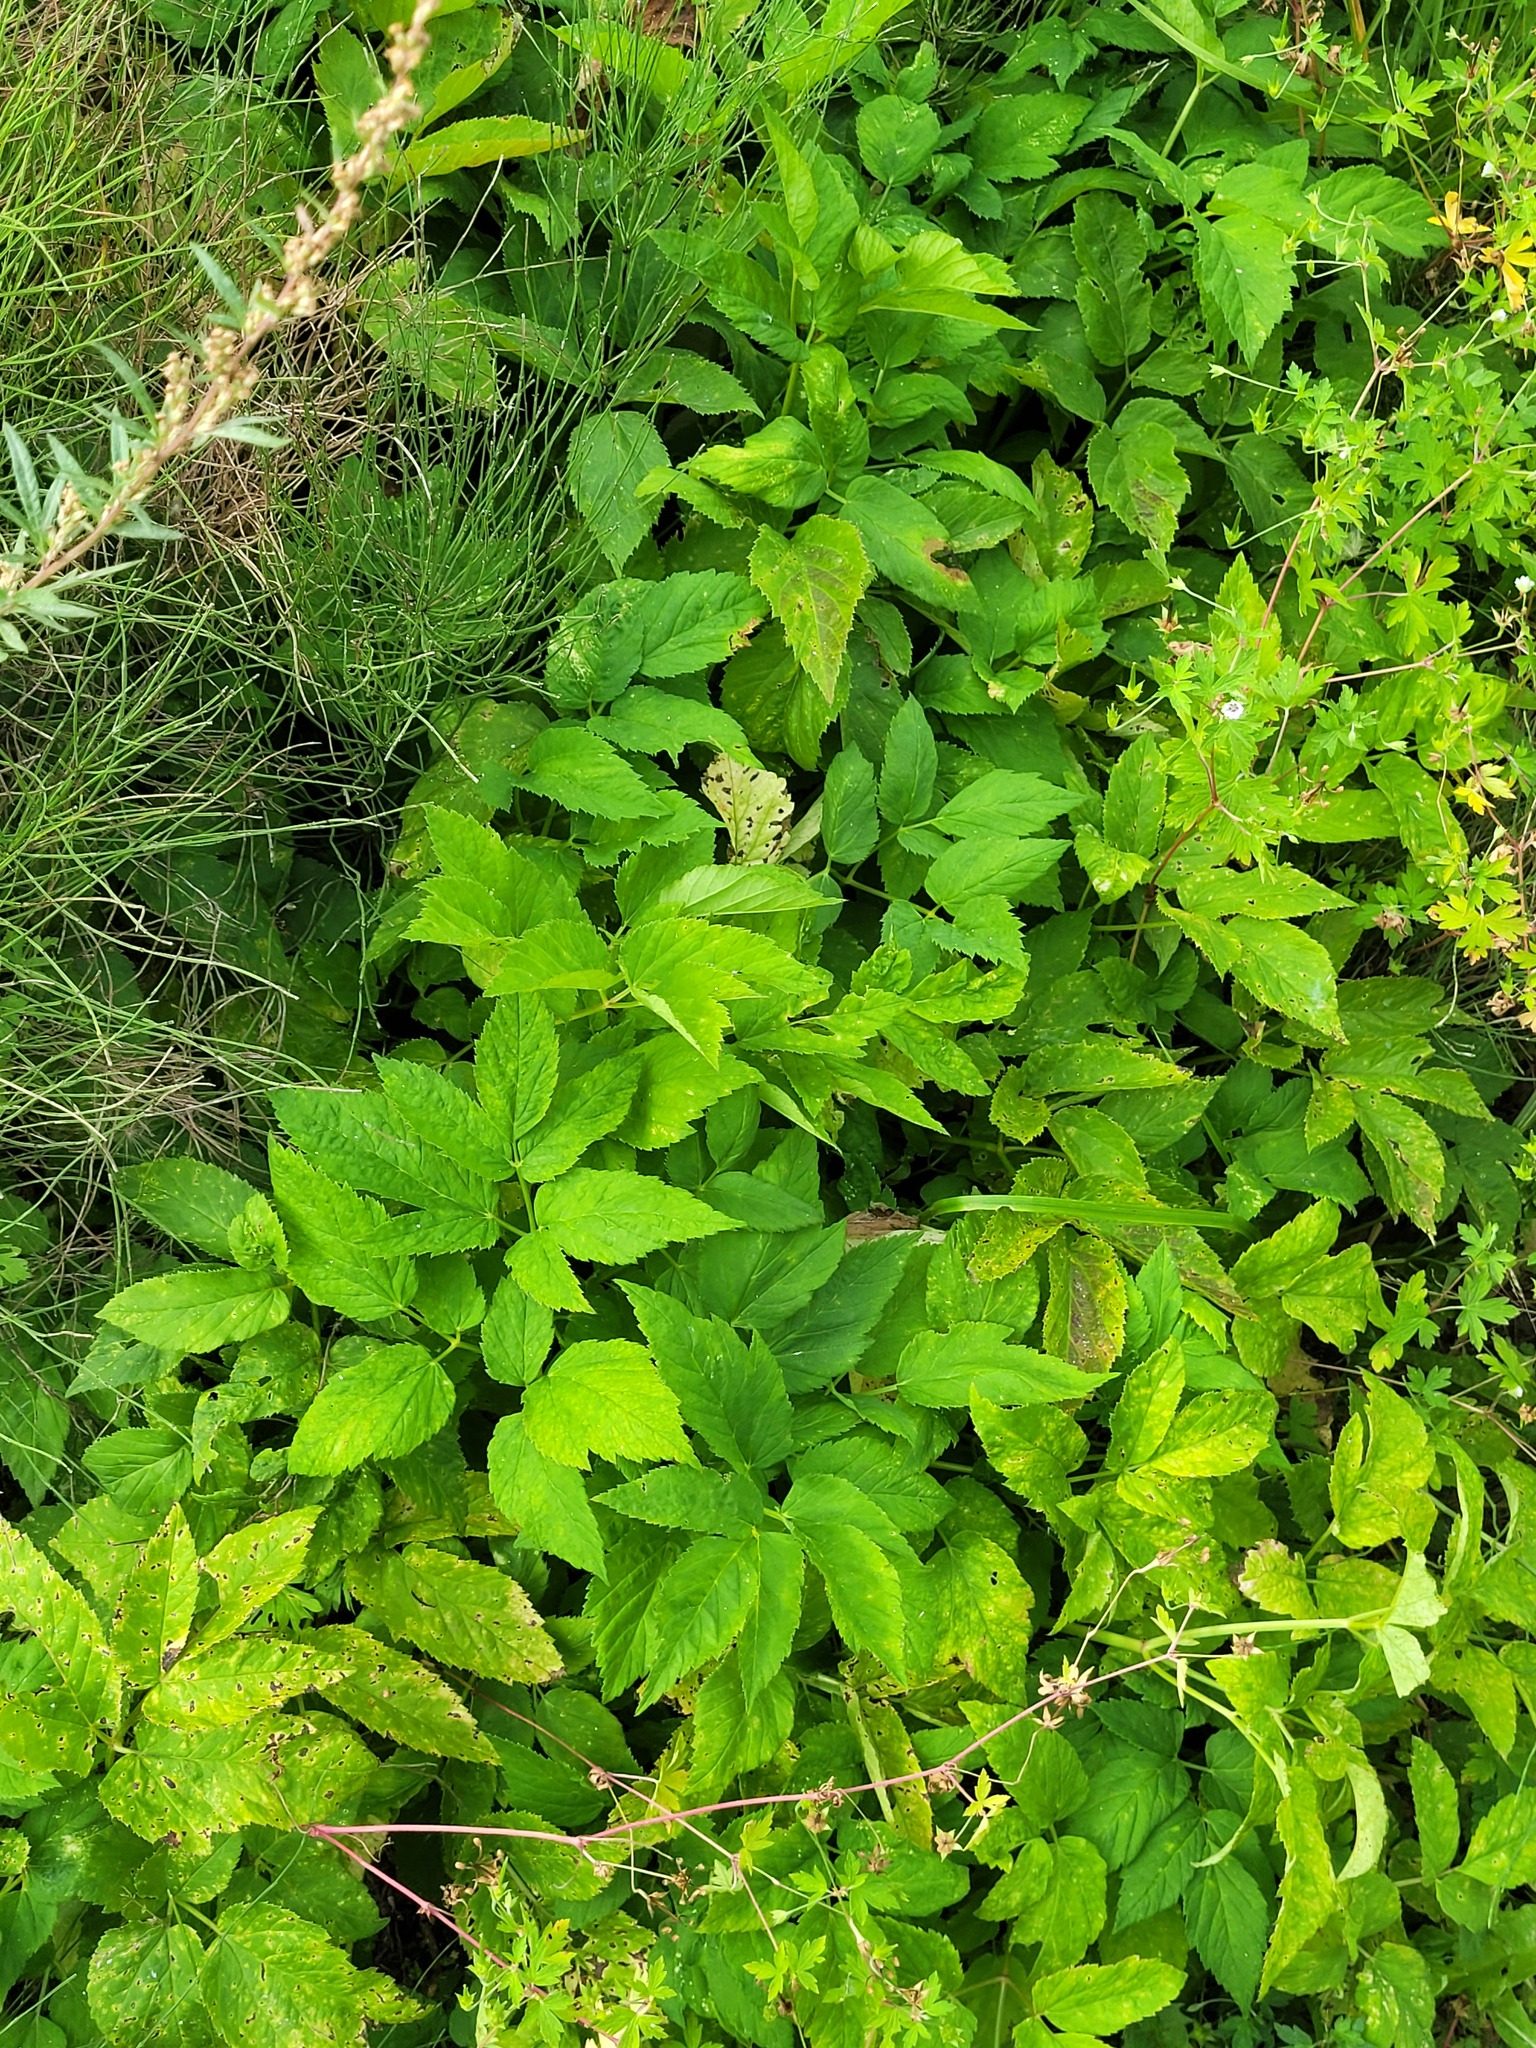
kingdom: Plantae
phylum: Tracheophyta
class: Magnoliopsida
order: Apiales
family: Apiaceae
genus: Aegopodium
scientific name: Aegopodium podagraria
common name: Ground-elder
